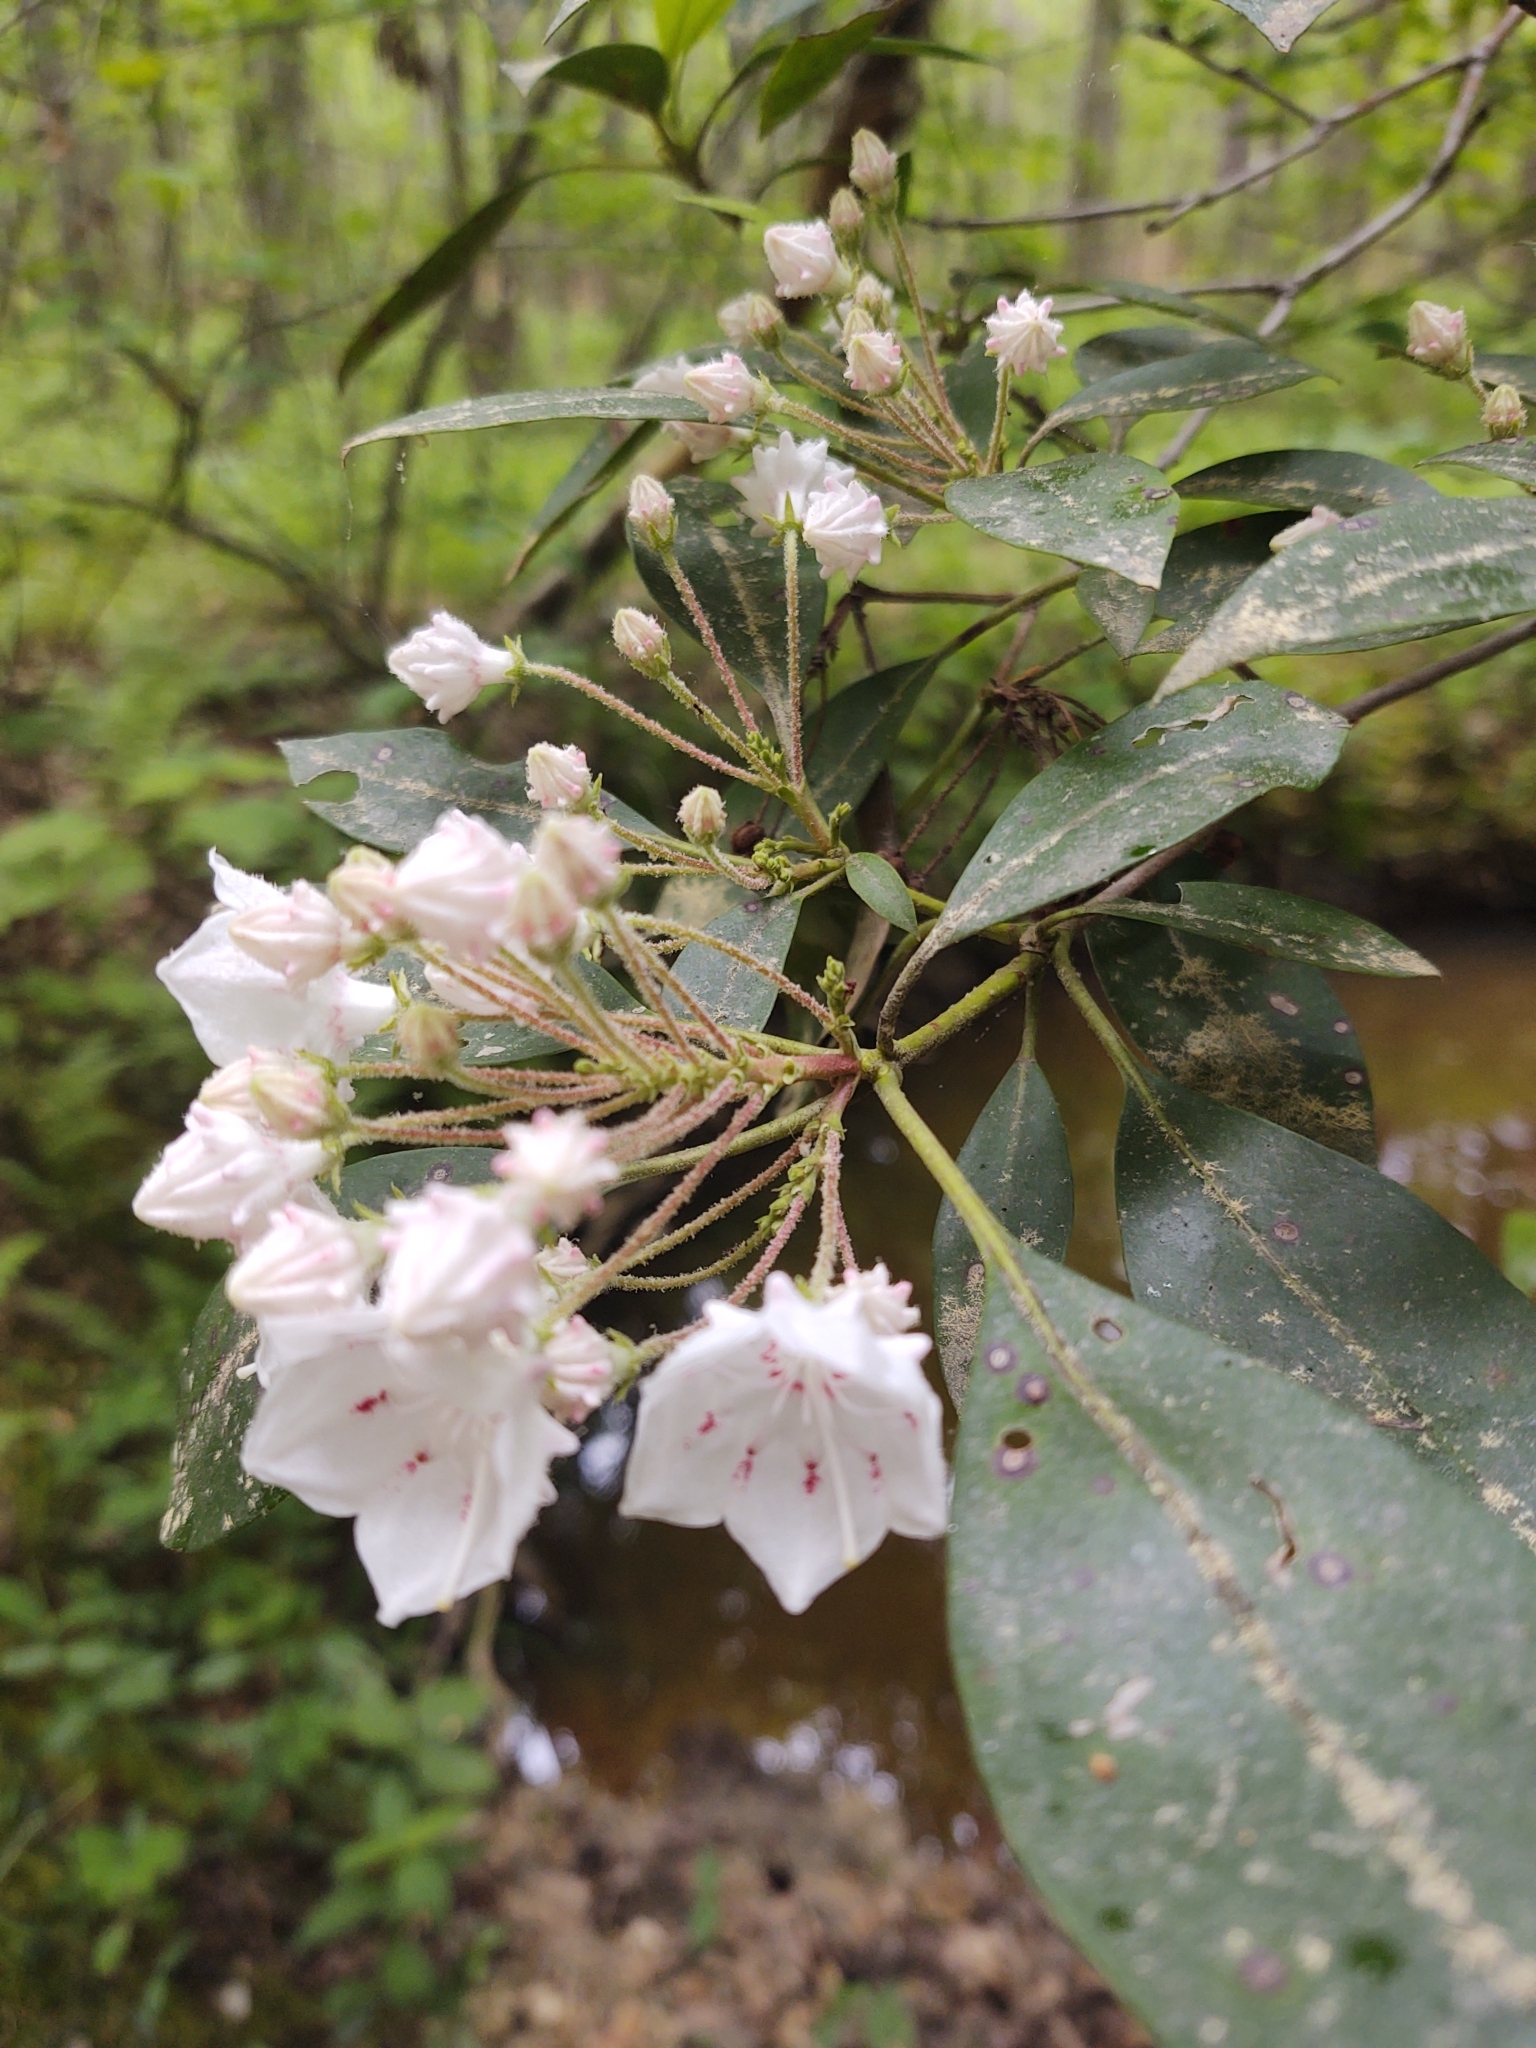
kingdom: Plantae
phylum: Tracheophyta
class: Magnoliopsida
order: Ericales
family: Ericaceae
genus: Kalmia
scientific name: Kalmia latifolia
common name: Mountain-laurel
